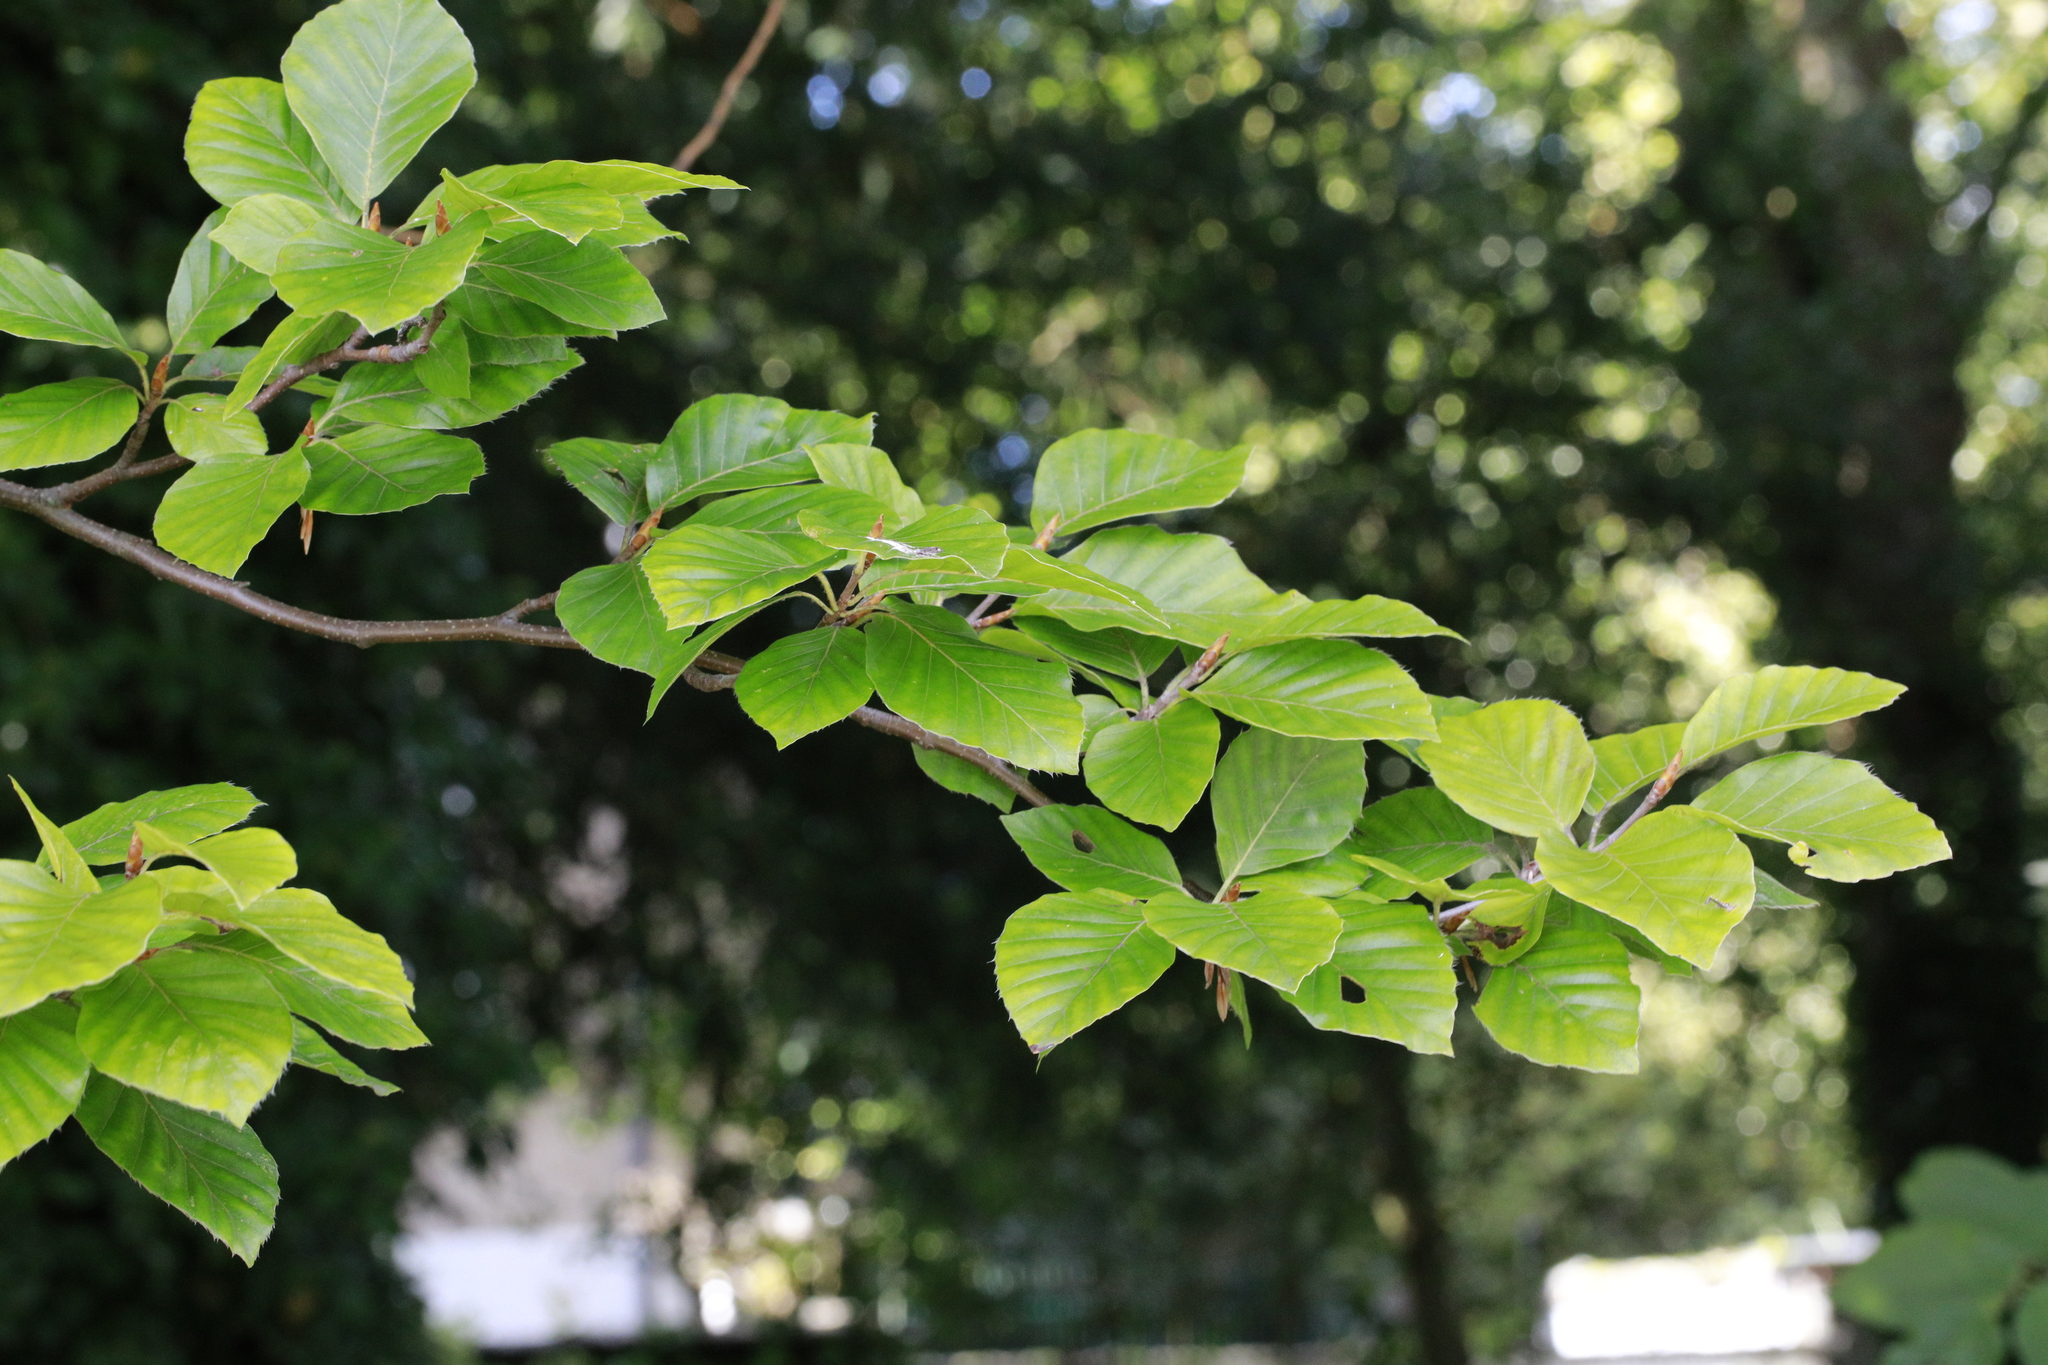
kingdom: Plantae
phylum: Tracheophyta
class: Magnoliopsida
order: Fagales
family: Fagaceae
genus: Fagus
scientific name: Fagus sylvatica
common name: Beech
